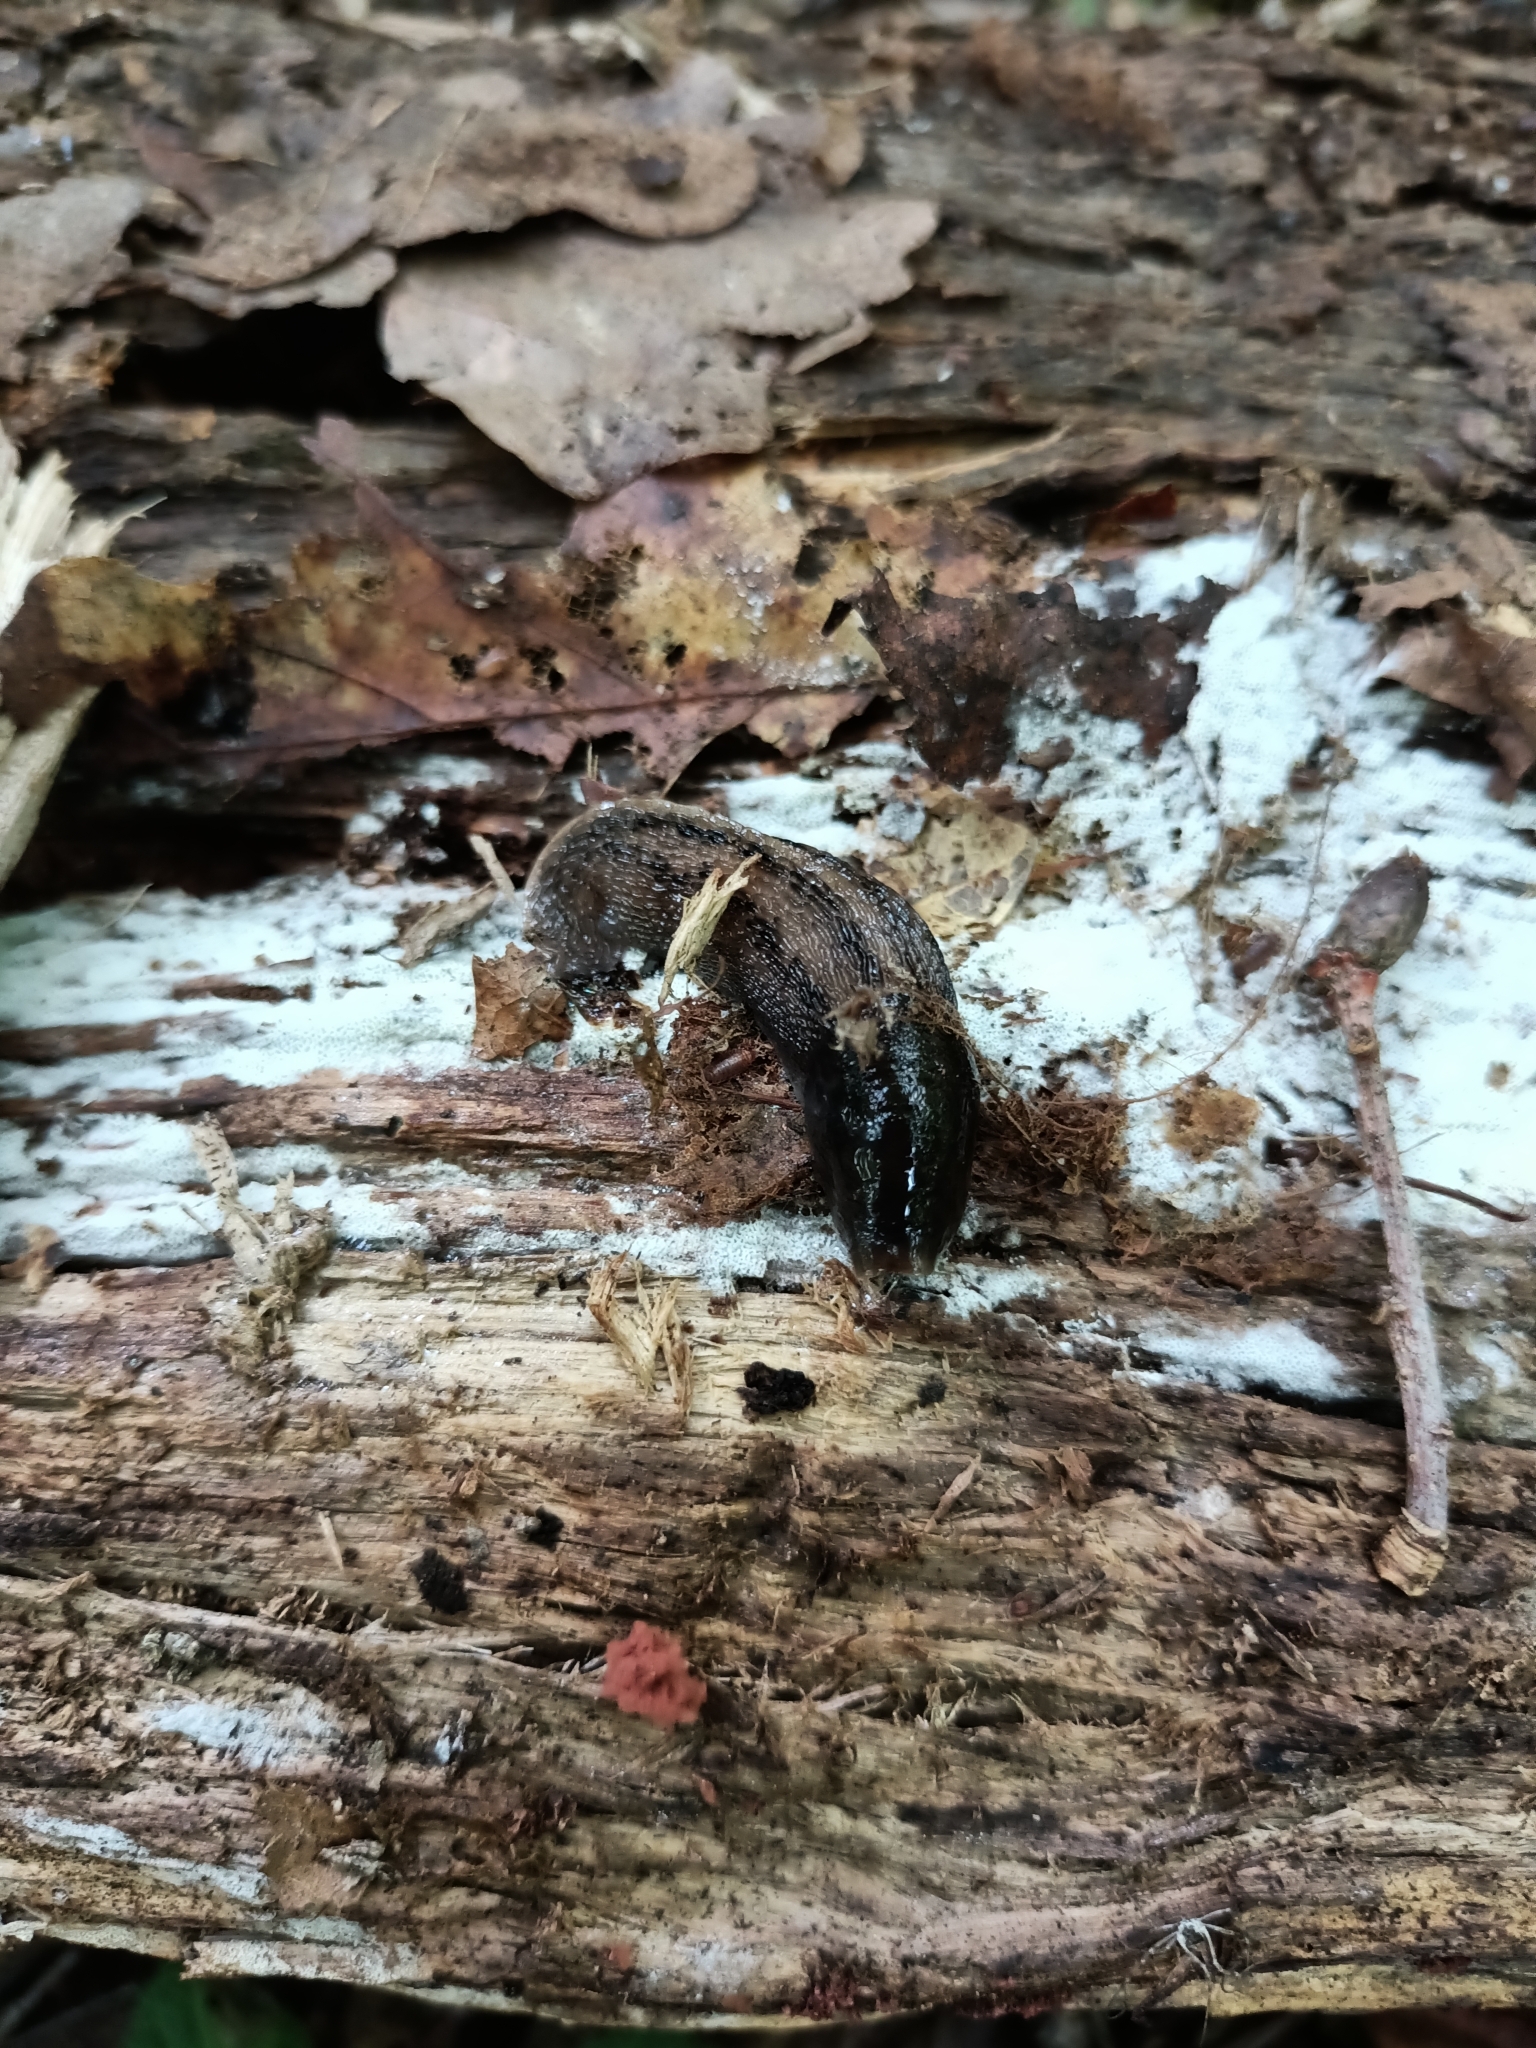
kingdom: Animalia
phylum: Mollusca
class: Gastropoda
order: Stylommatophora
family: Limacidae
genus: Limax
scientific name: Limax cinereoniger
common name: Ash-black slug
